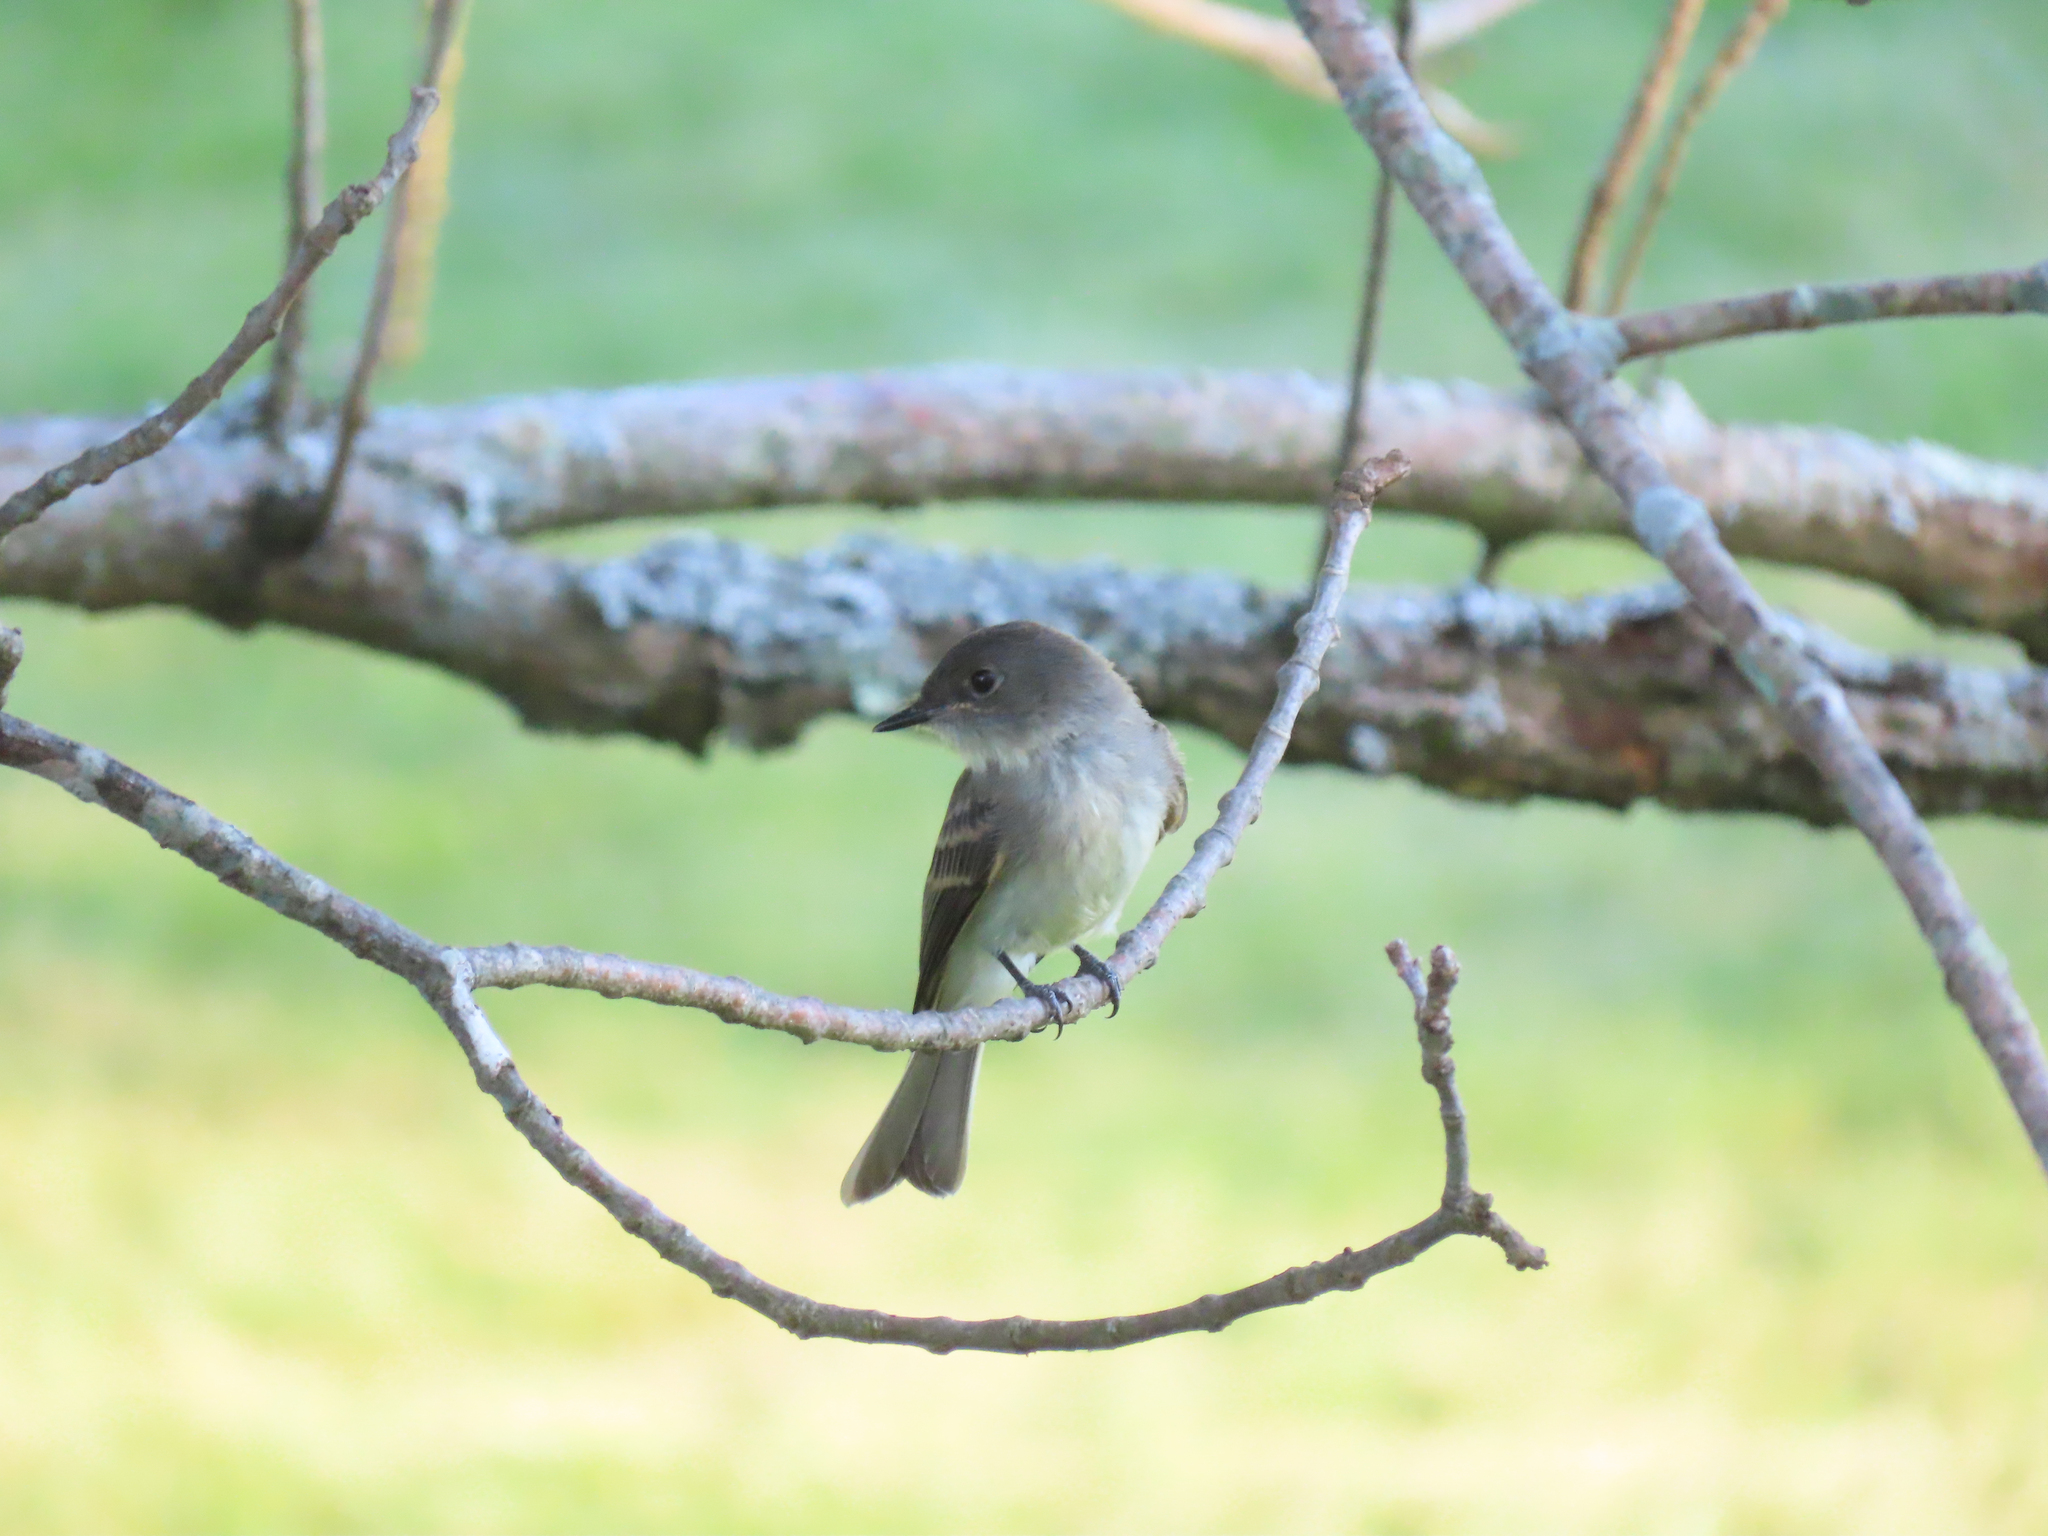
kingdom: Animalia
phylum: Chordata
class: Aves
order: Passeriformes
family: Tyrannidae
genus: Sayornis
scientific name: Sayornis phoebe
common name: Eastern phoebe
